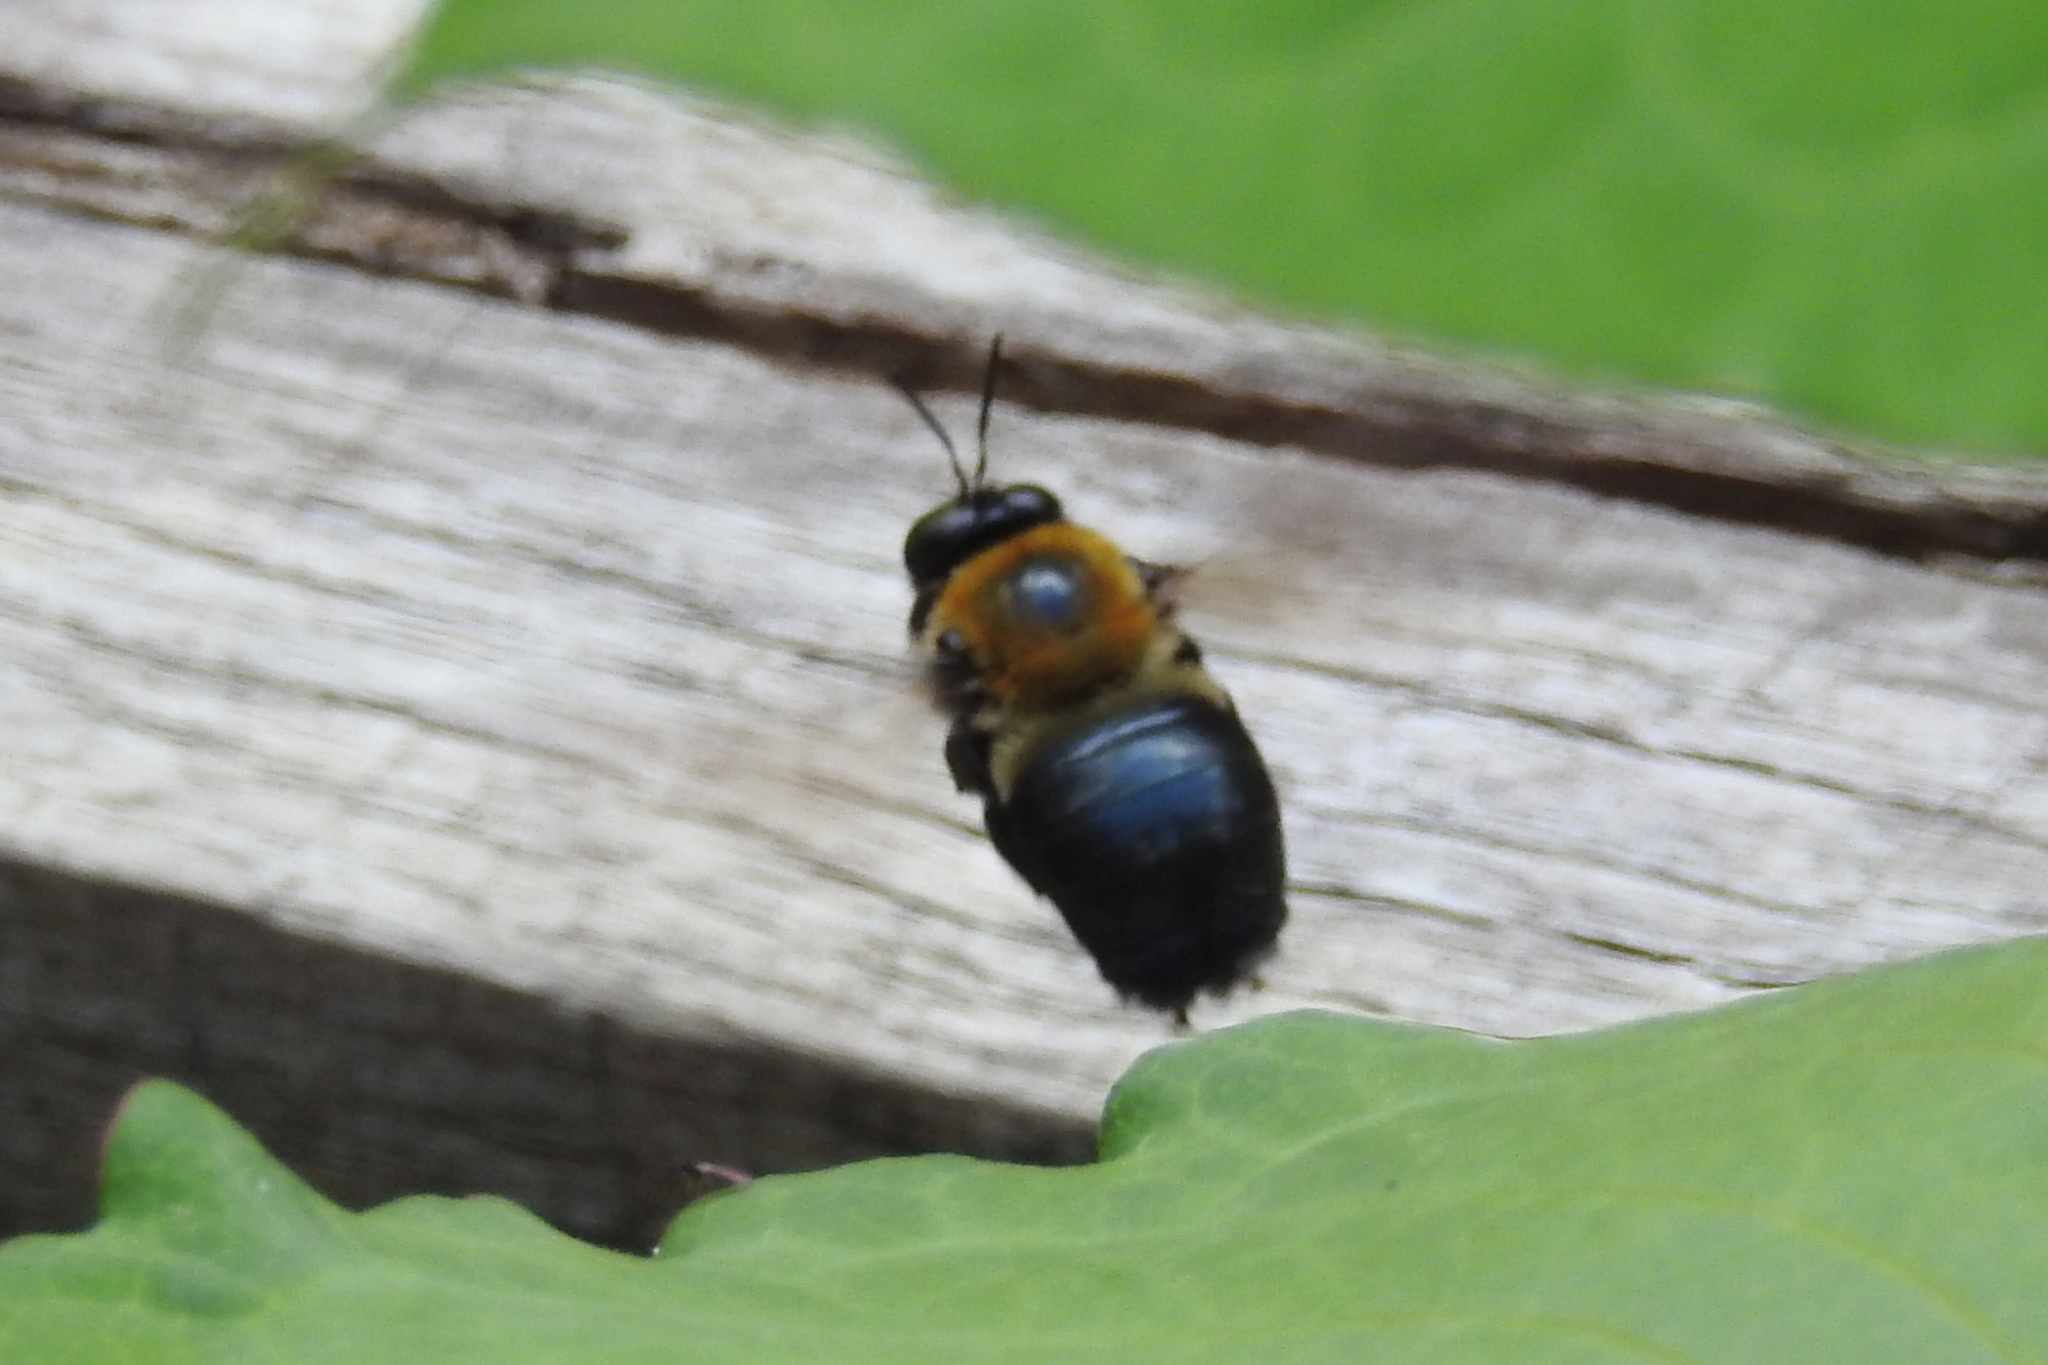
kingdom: Animalia
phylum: Arthropoda
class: Insecta
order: Hymenoptera
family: Apidae
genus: Xylocopa
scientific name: Xylocopa virginica
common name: Carpenter bee
